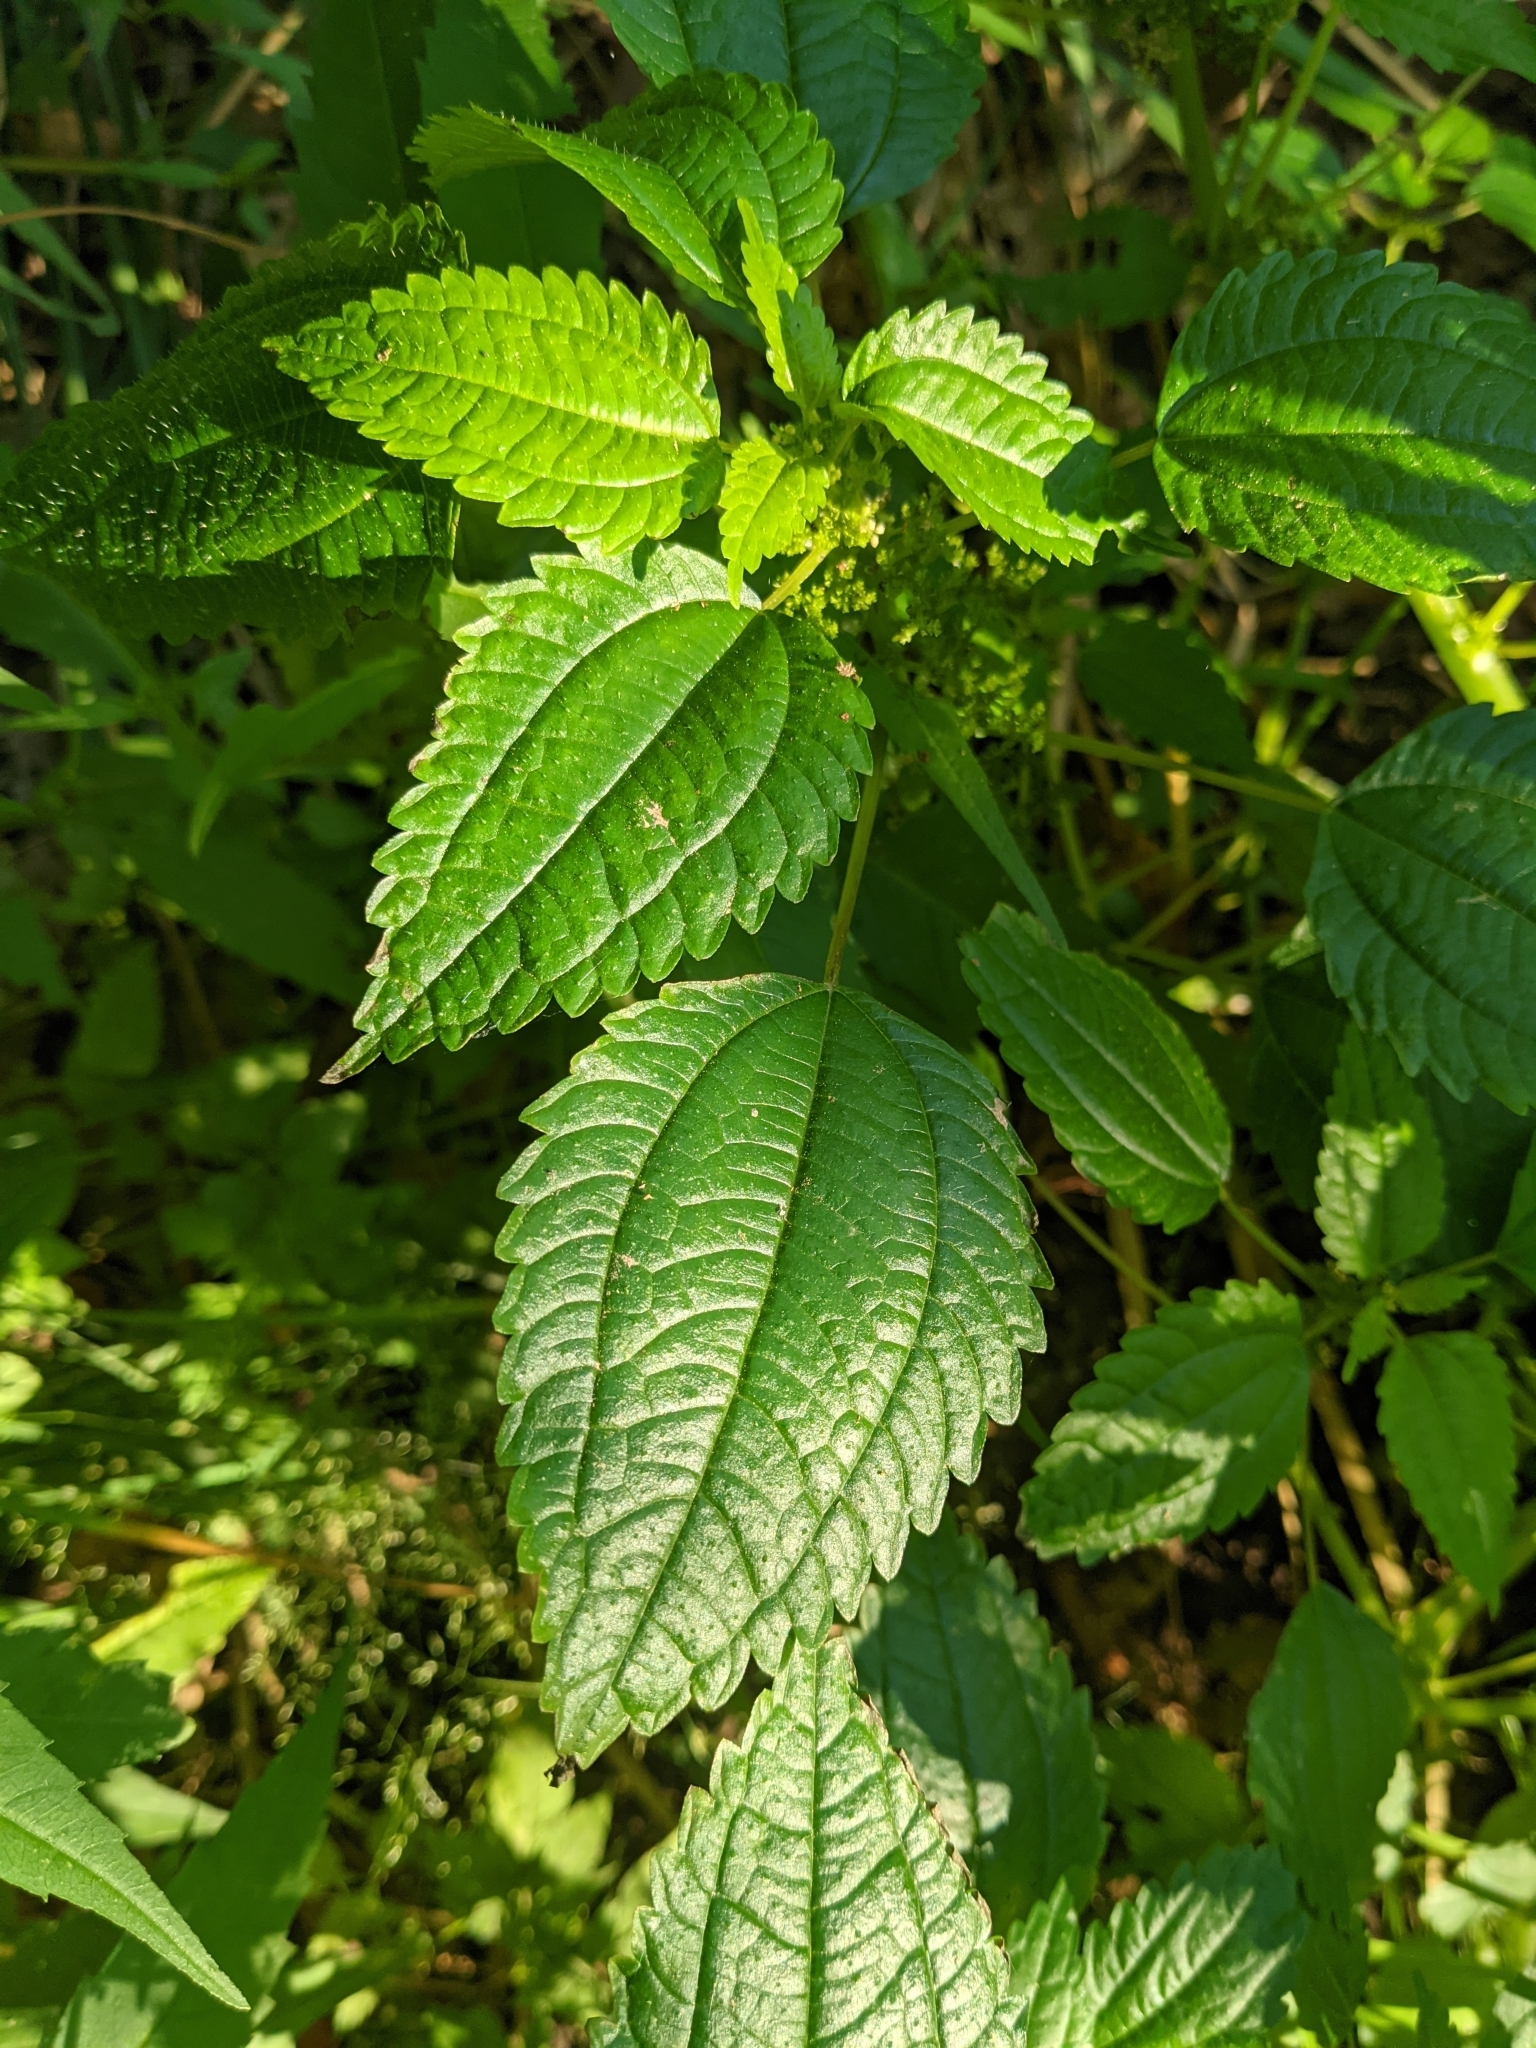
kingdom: Plantae
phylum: Tracheophyta
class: Magnoliopsida
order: Rosales
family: Urticaceae
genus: Pilea
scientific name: Pilea pumila
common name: Clearweed
